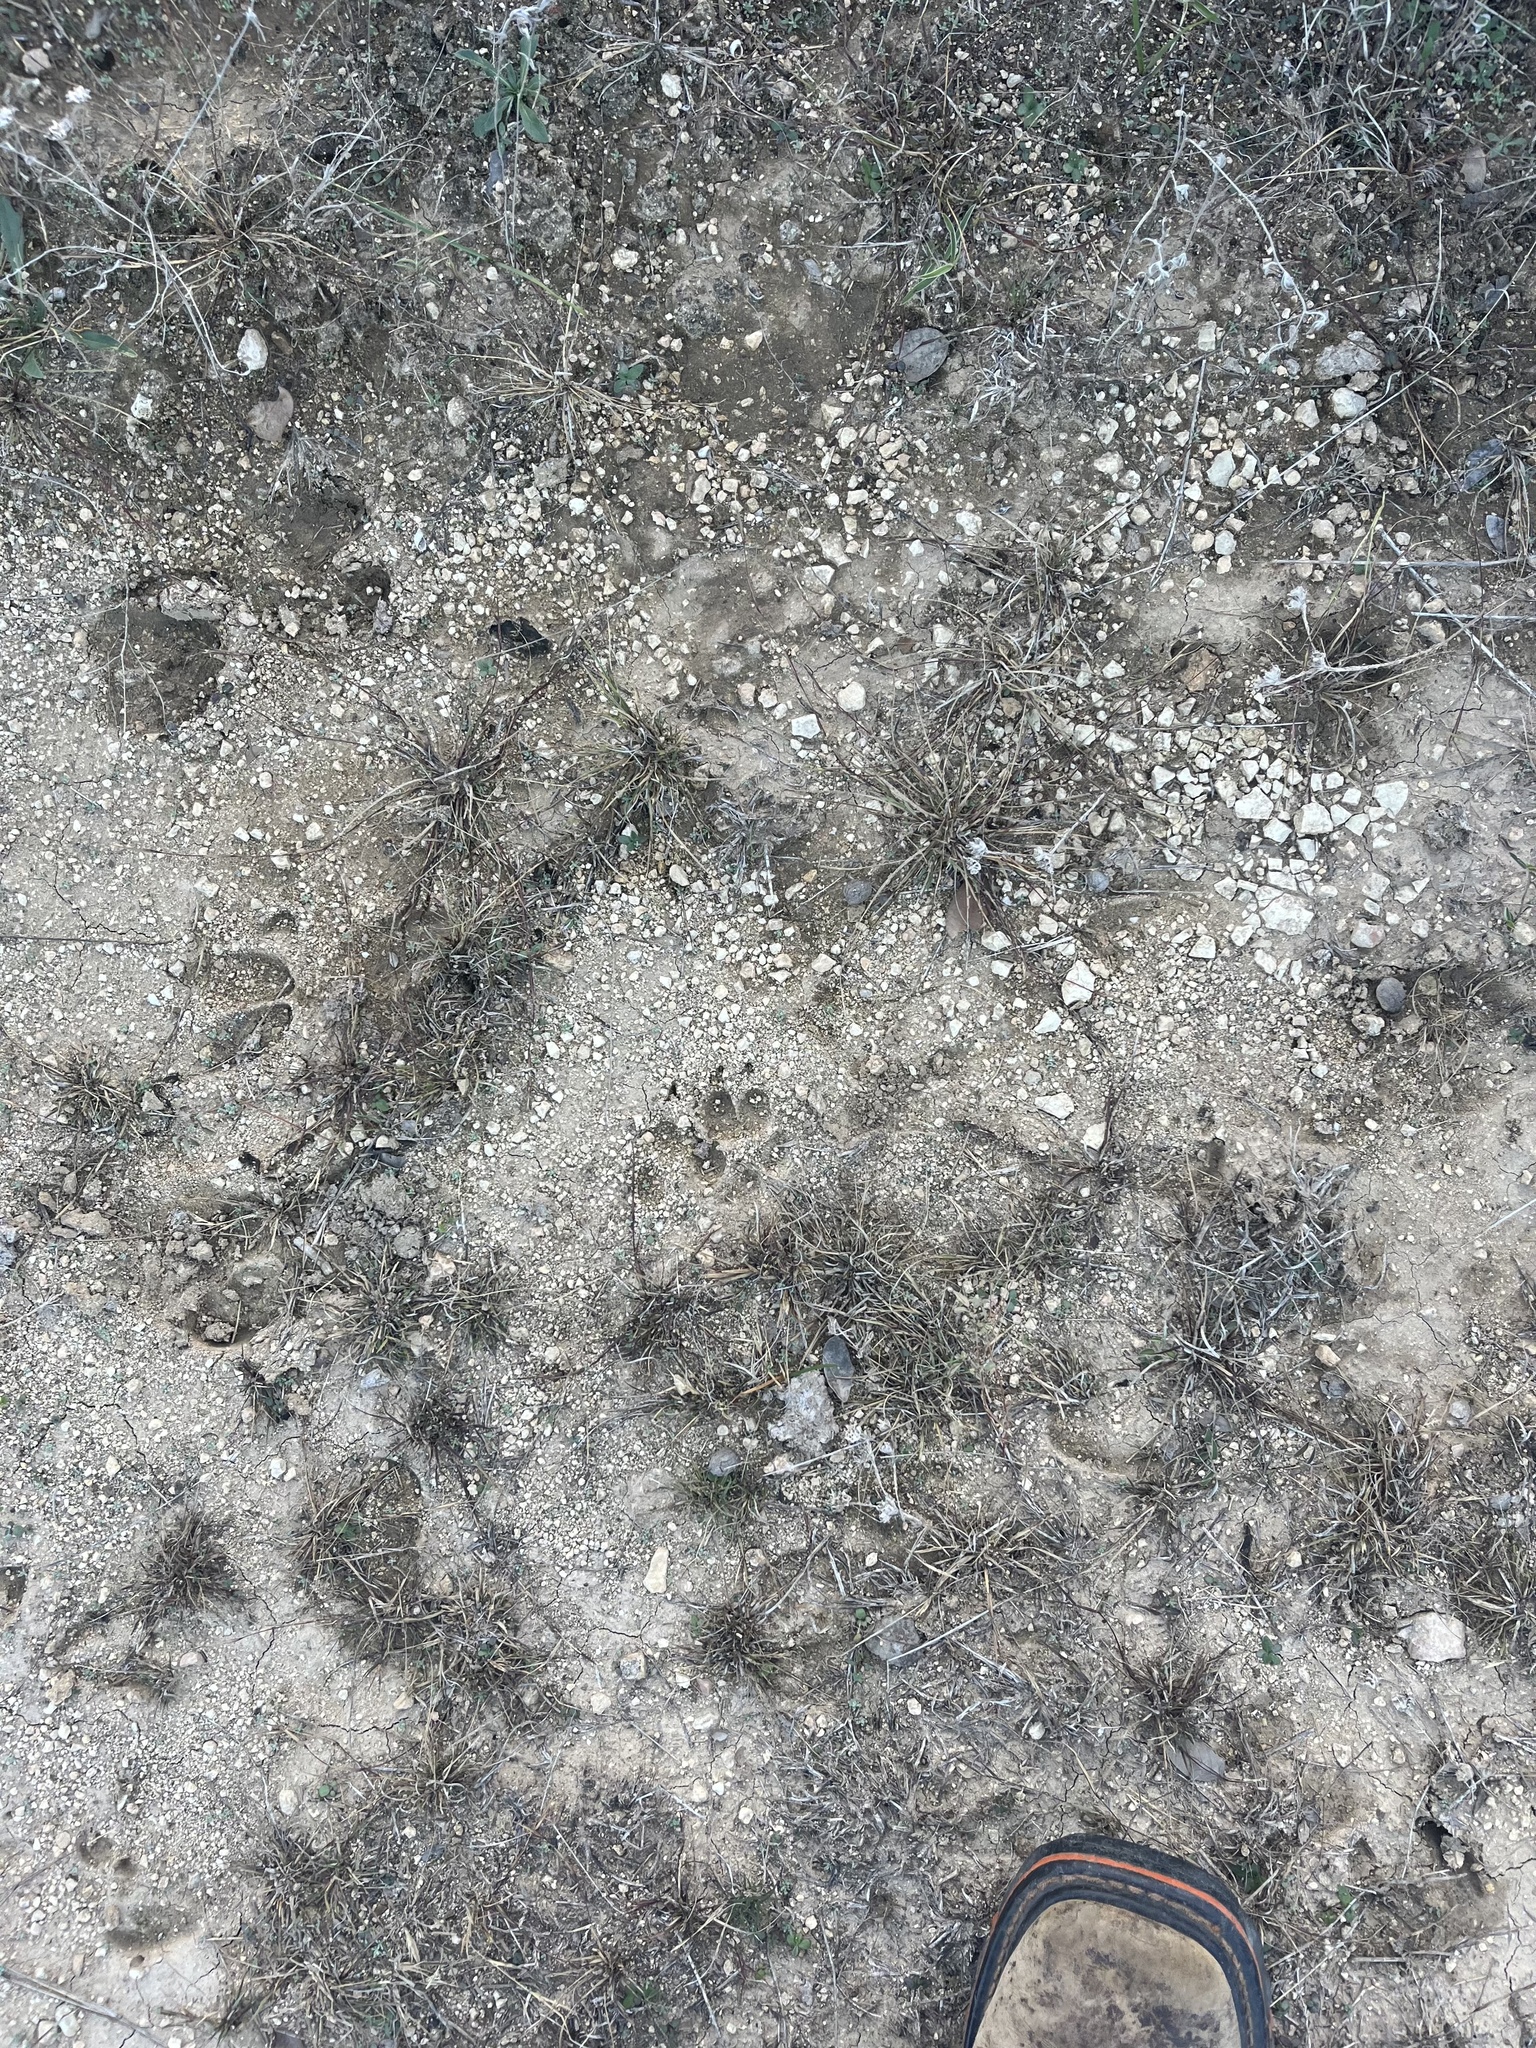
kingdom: Animalia
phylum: Chordata
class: Mammalia
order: Carnivora
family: Canidae
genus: Canis
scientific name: Canis latrans
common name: Coyote
